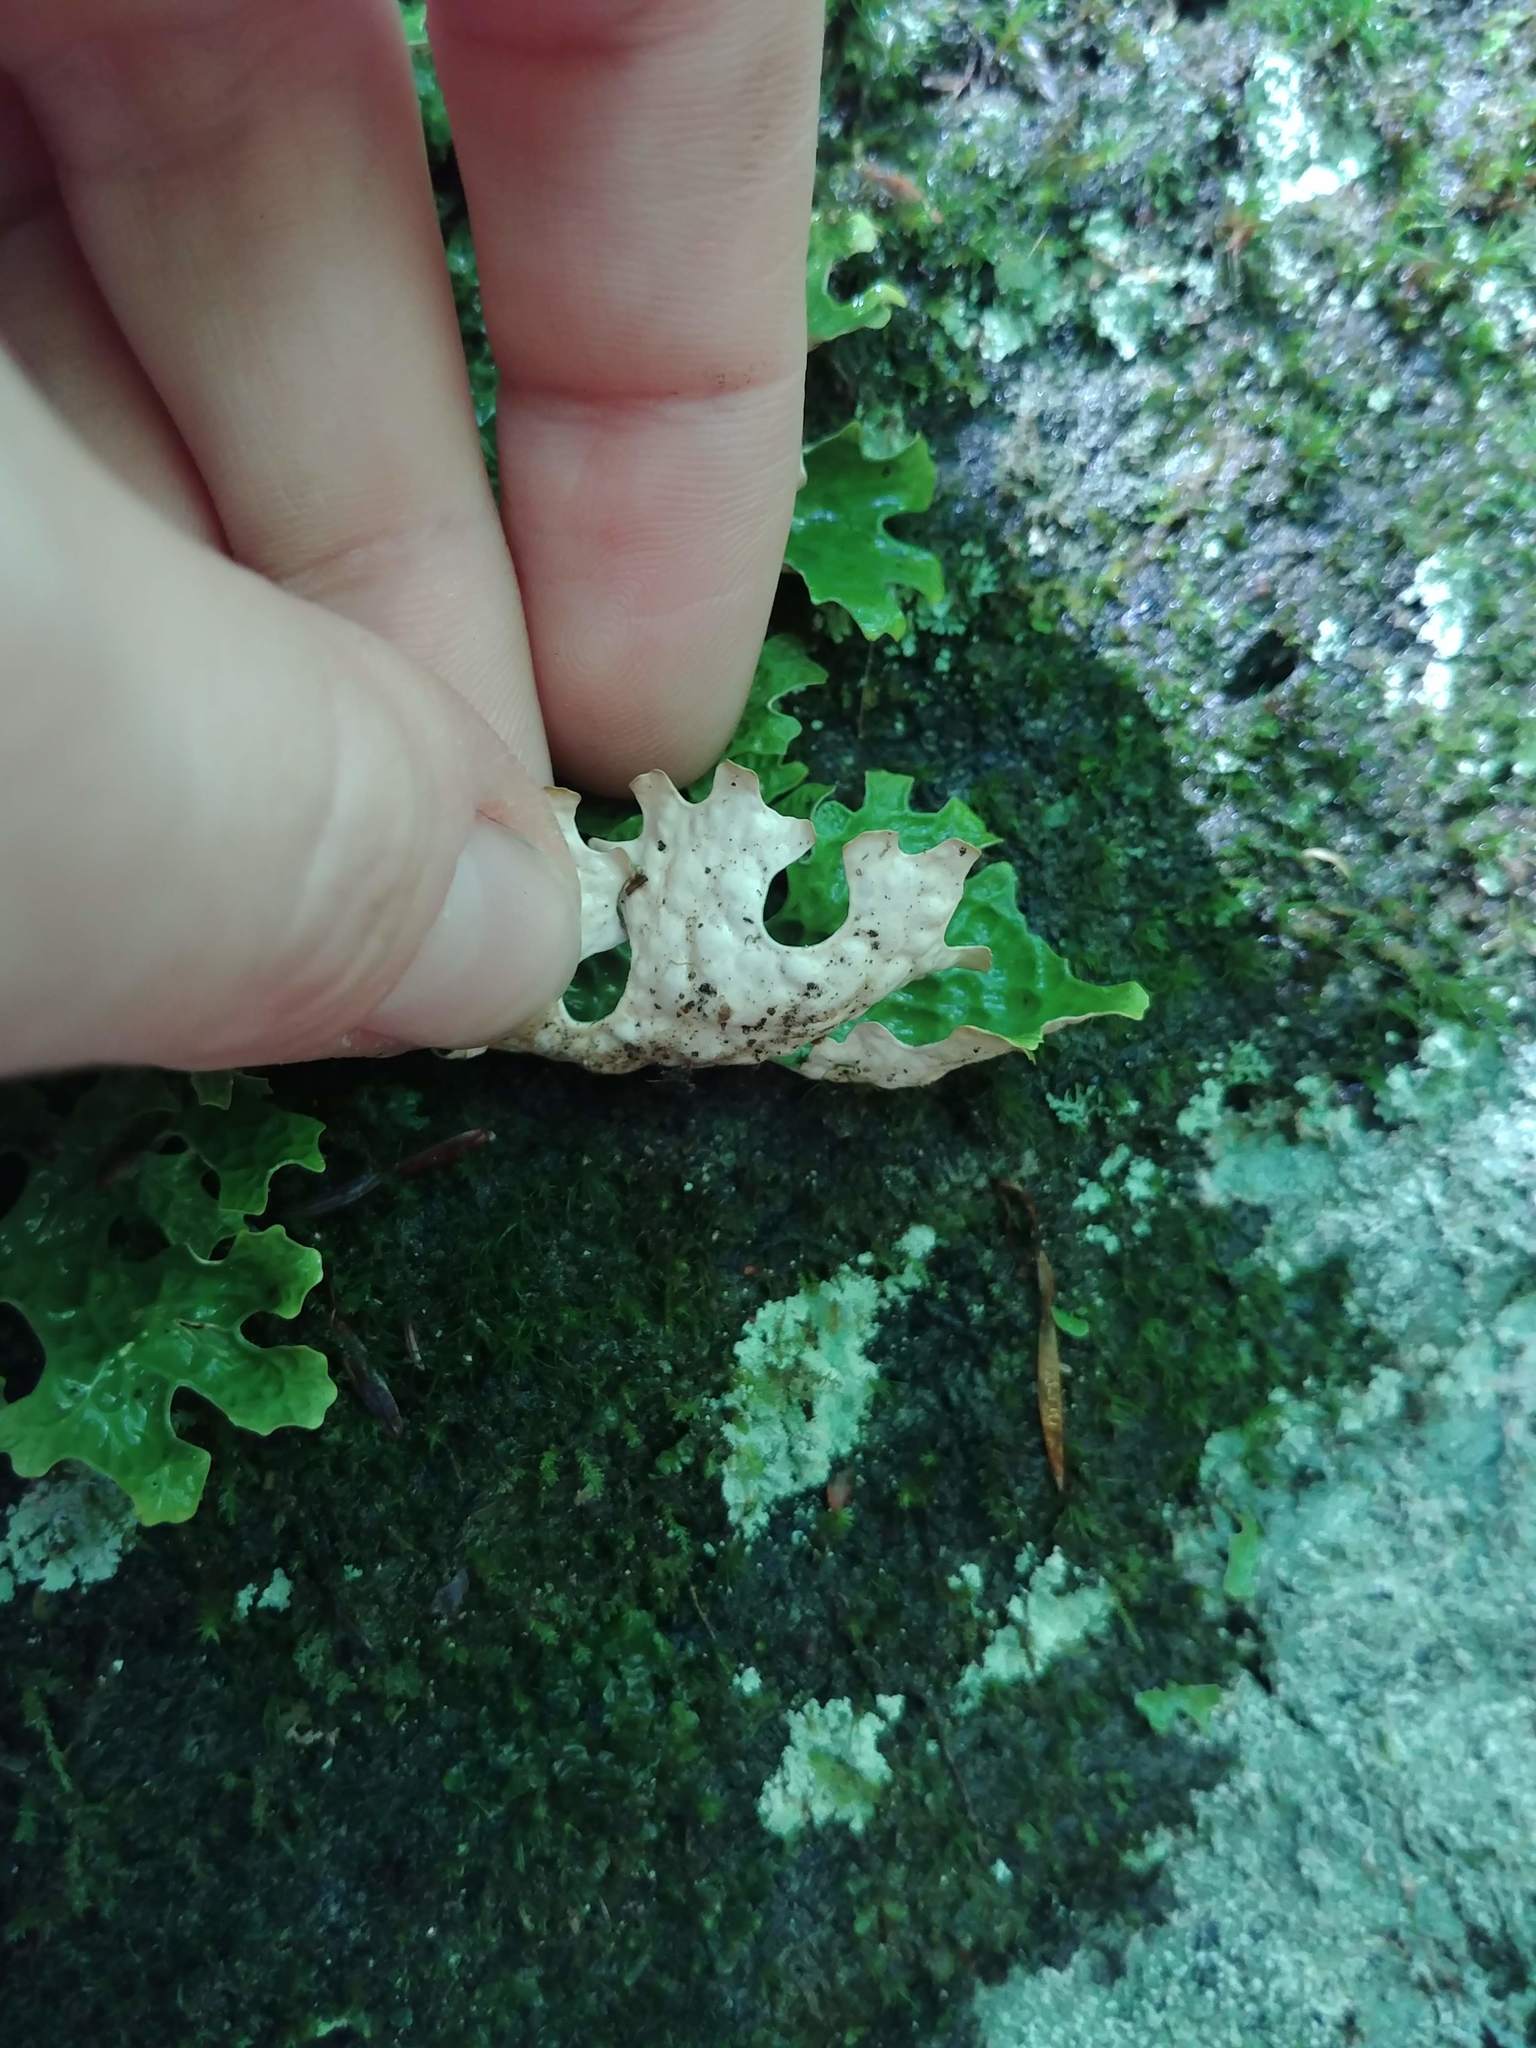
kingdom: Fungi
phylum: Ascomycota
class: Lecanoromycetes
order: Peltigerales
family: Lobariaceae
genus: Lobaria
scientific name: Lobaria pulmonaria
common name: Lungwort
